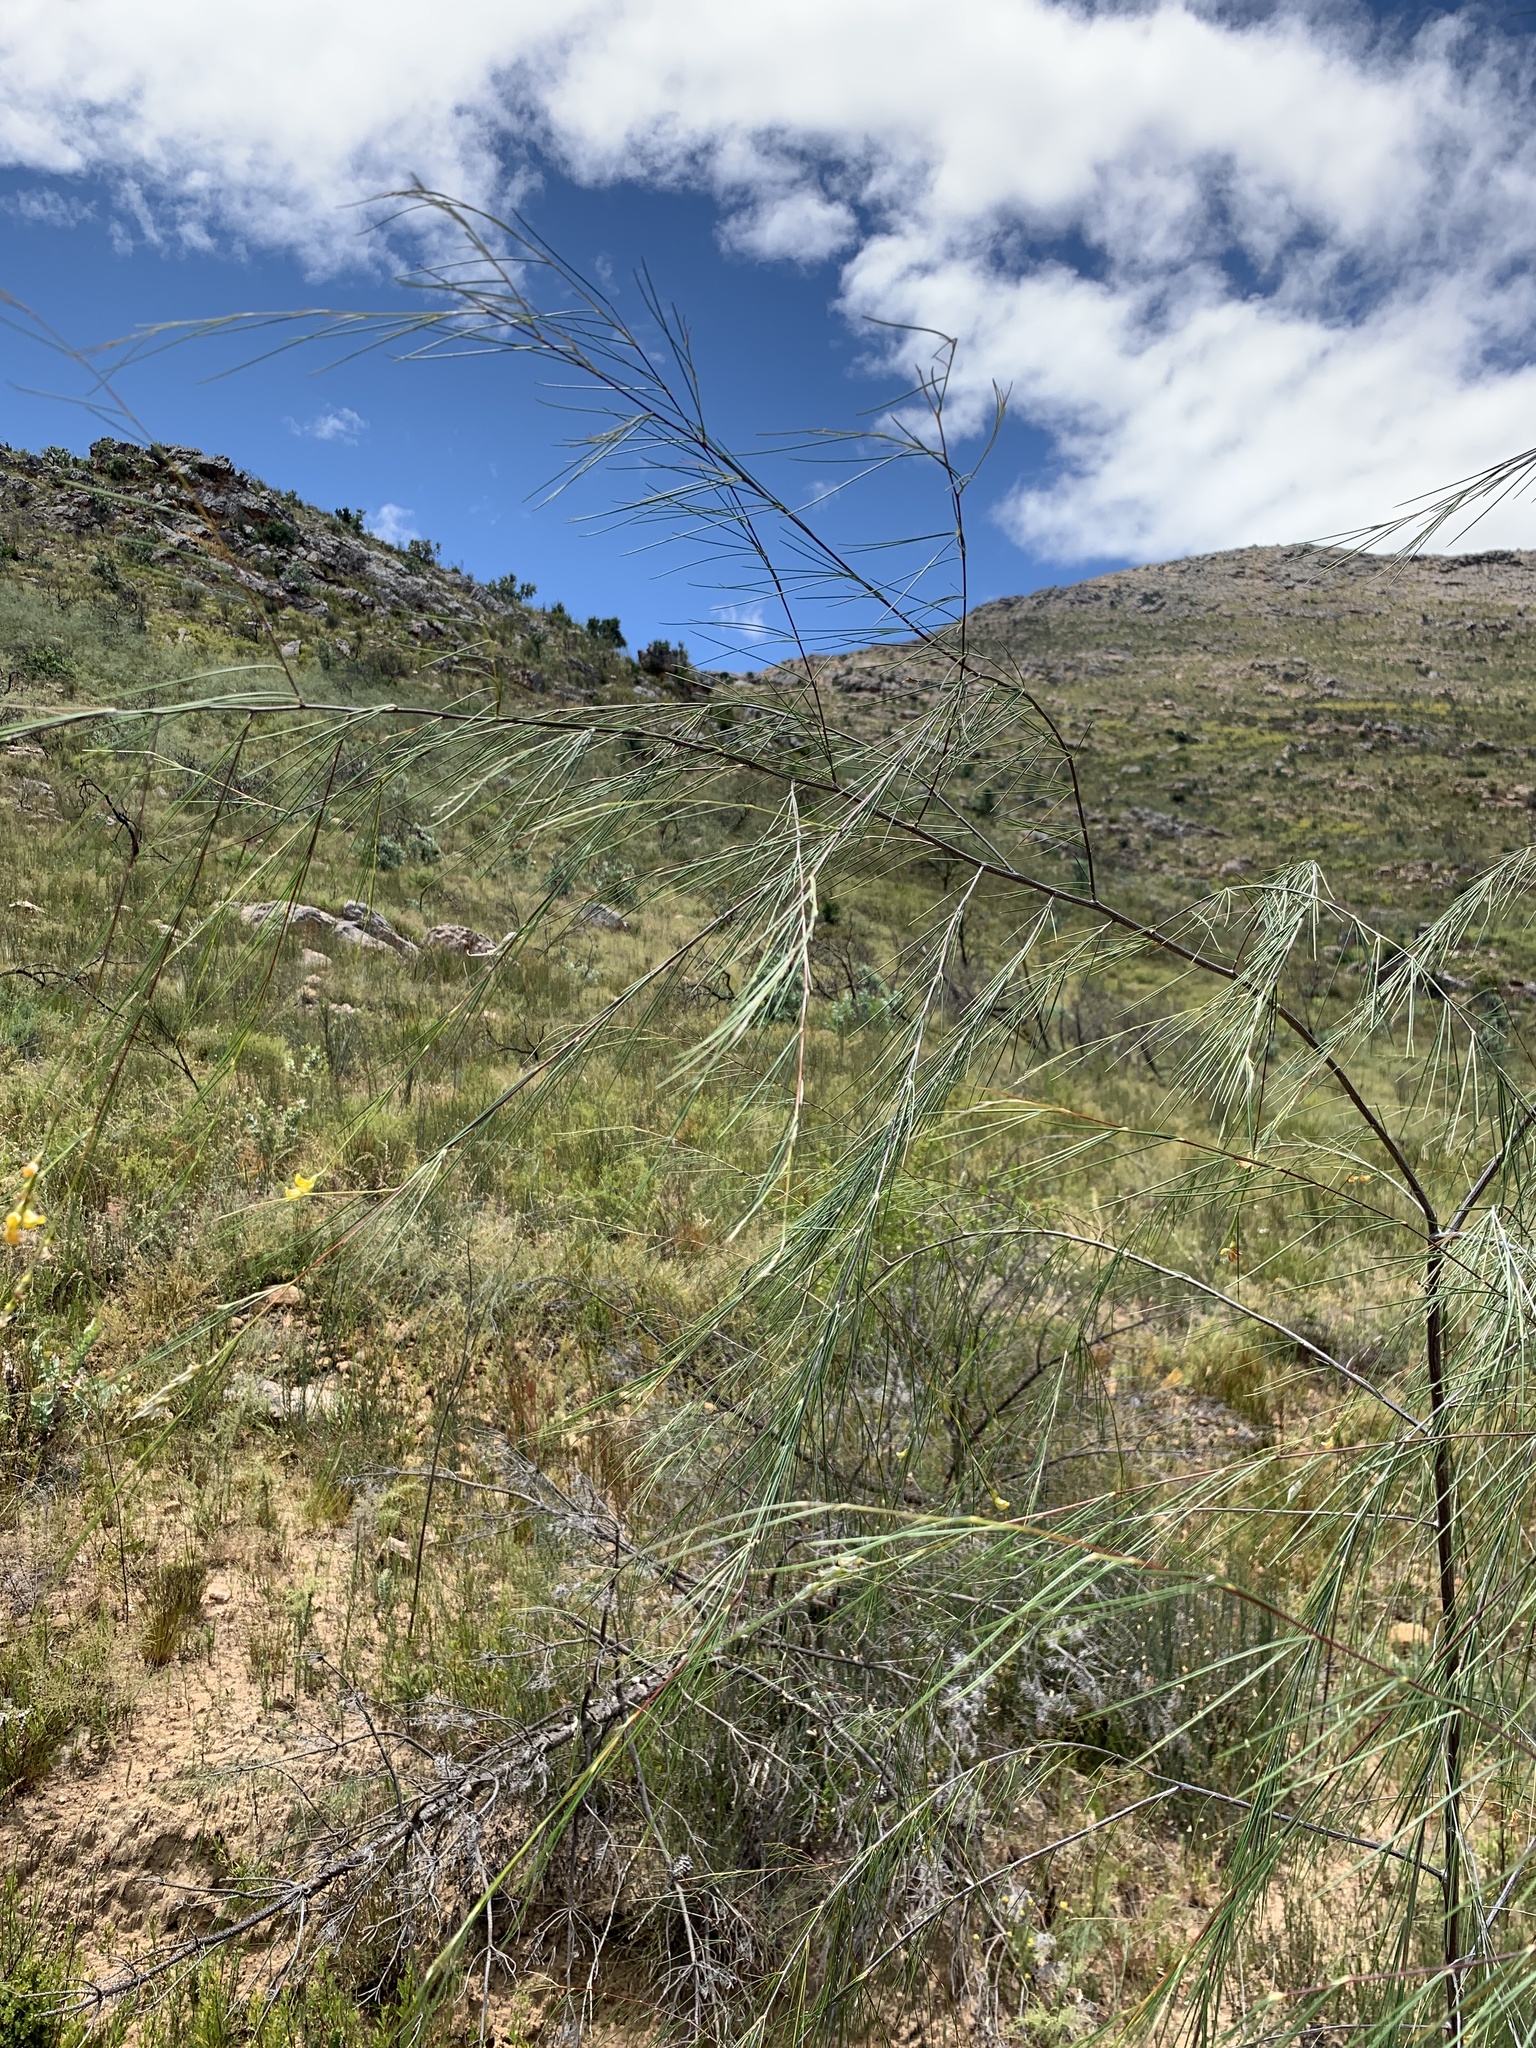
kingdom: Plantae
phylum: Tracheophyta
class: Magnoliopsida
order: Fabales
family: Fabaceae
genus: Aspalathus
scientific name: Aspalathus pendula
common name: Golden tea
